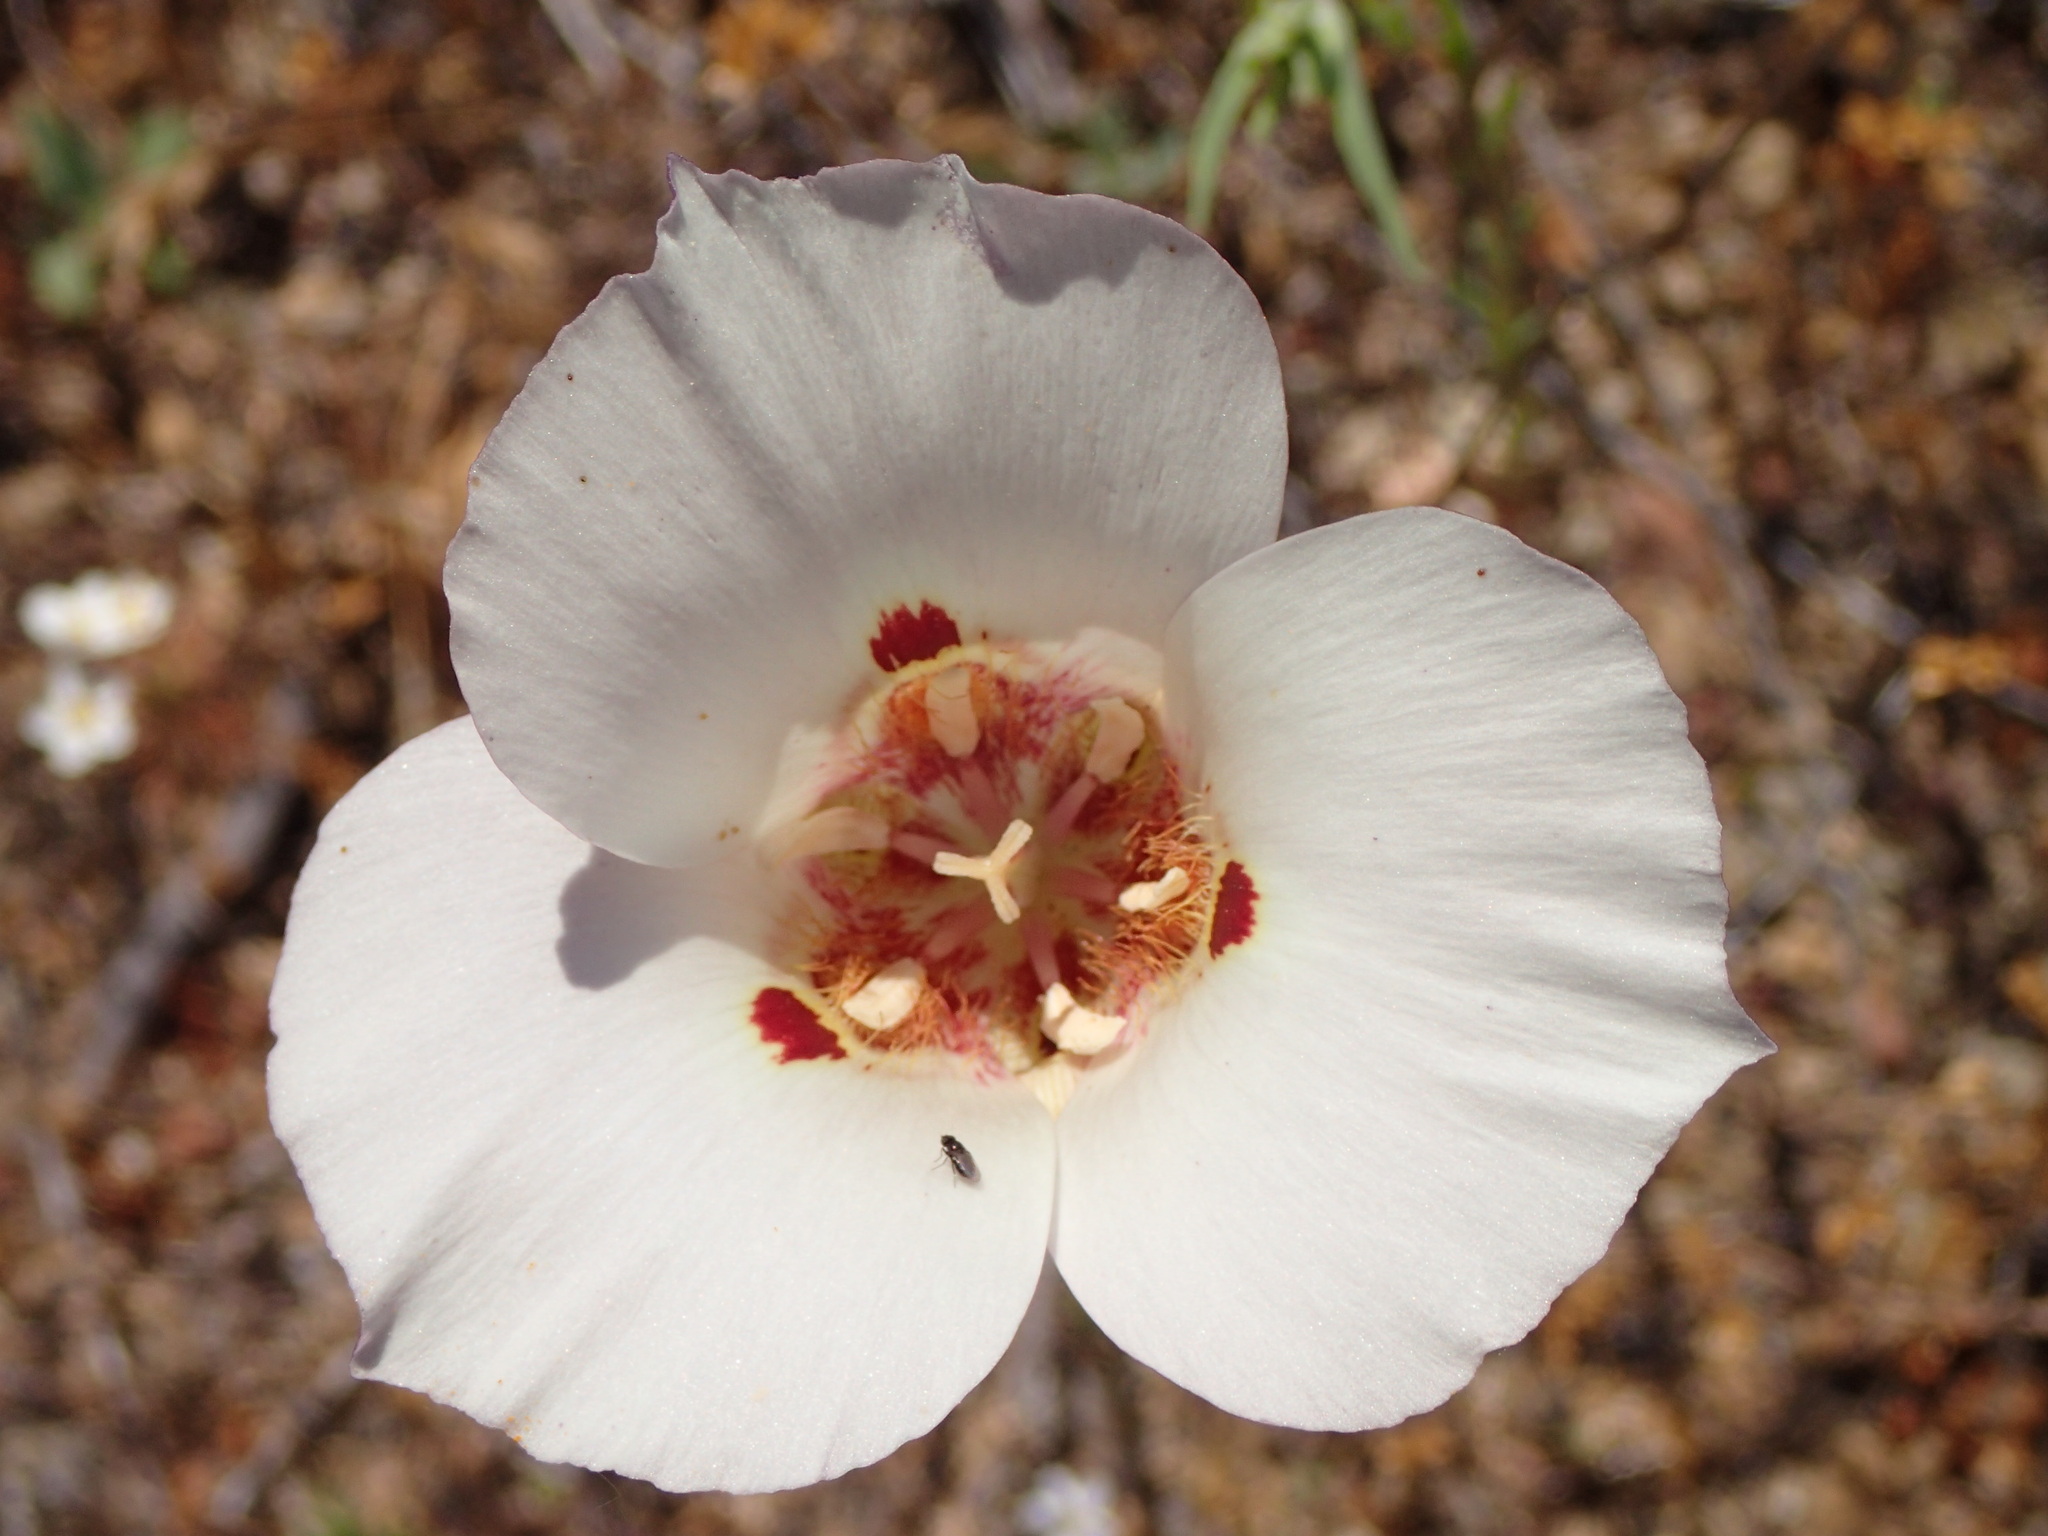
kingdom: Plantae
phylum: Tracheophyta
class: Liliopsida
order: Liliales
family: Liliaceae
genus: Calochortus
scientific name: Calochortus venustus
